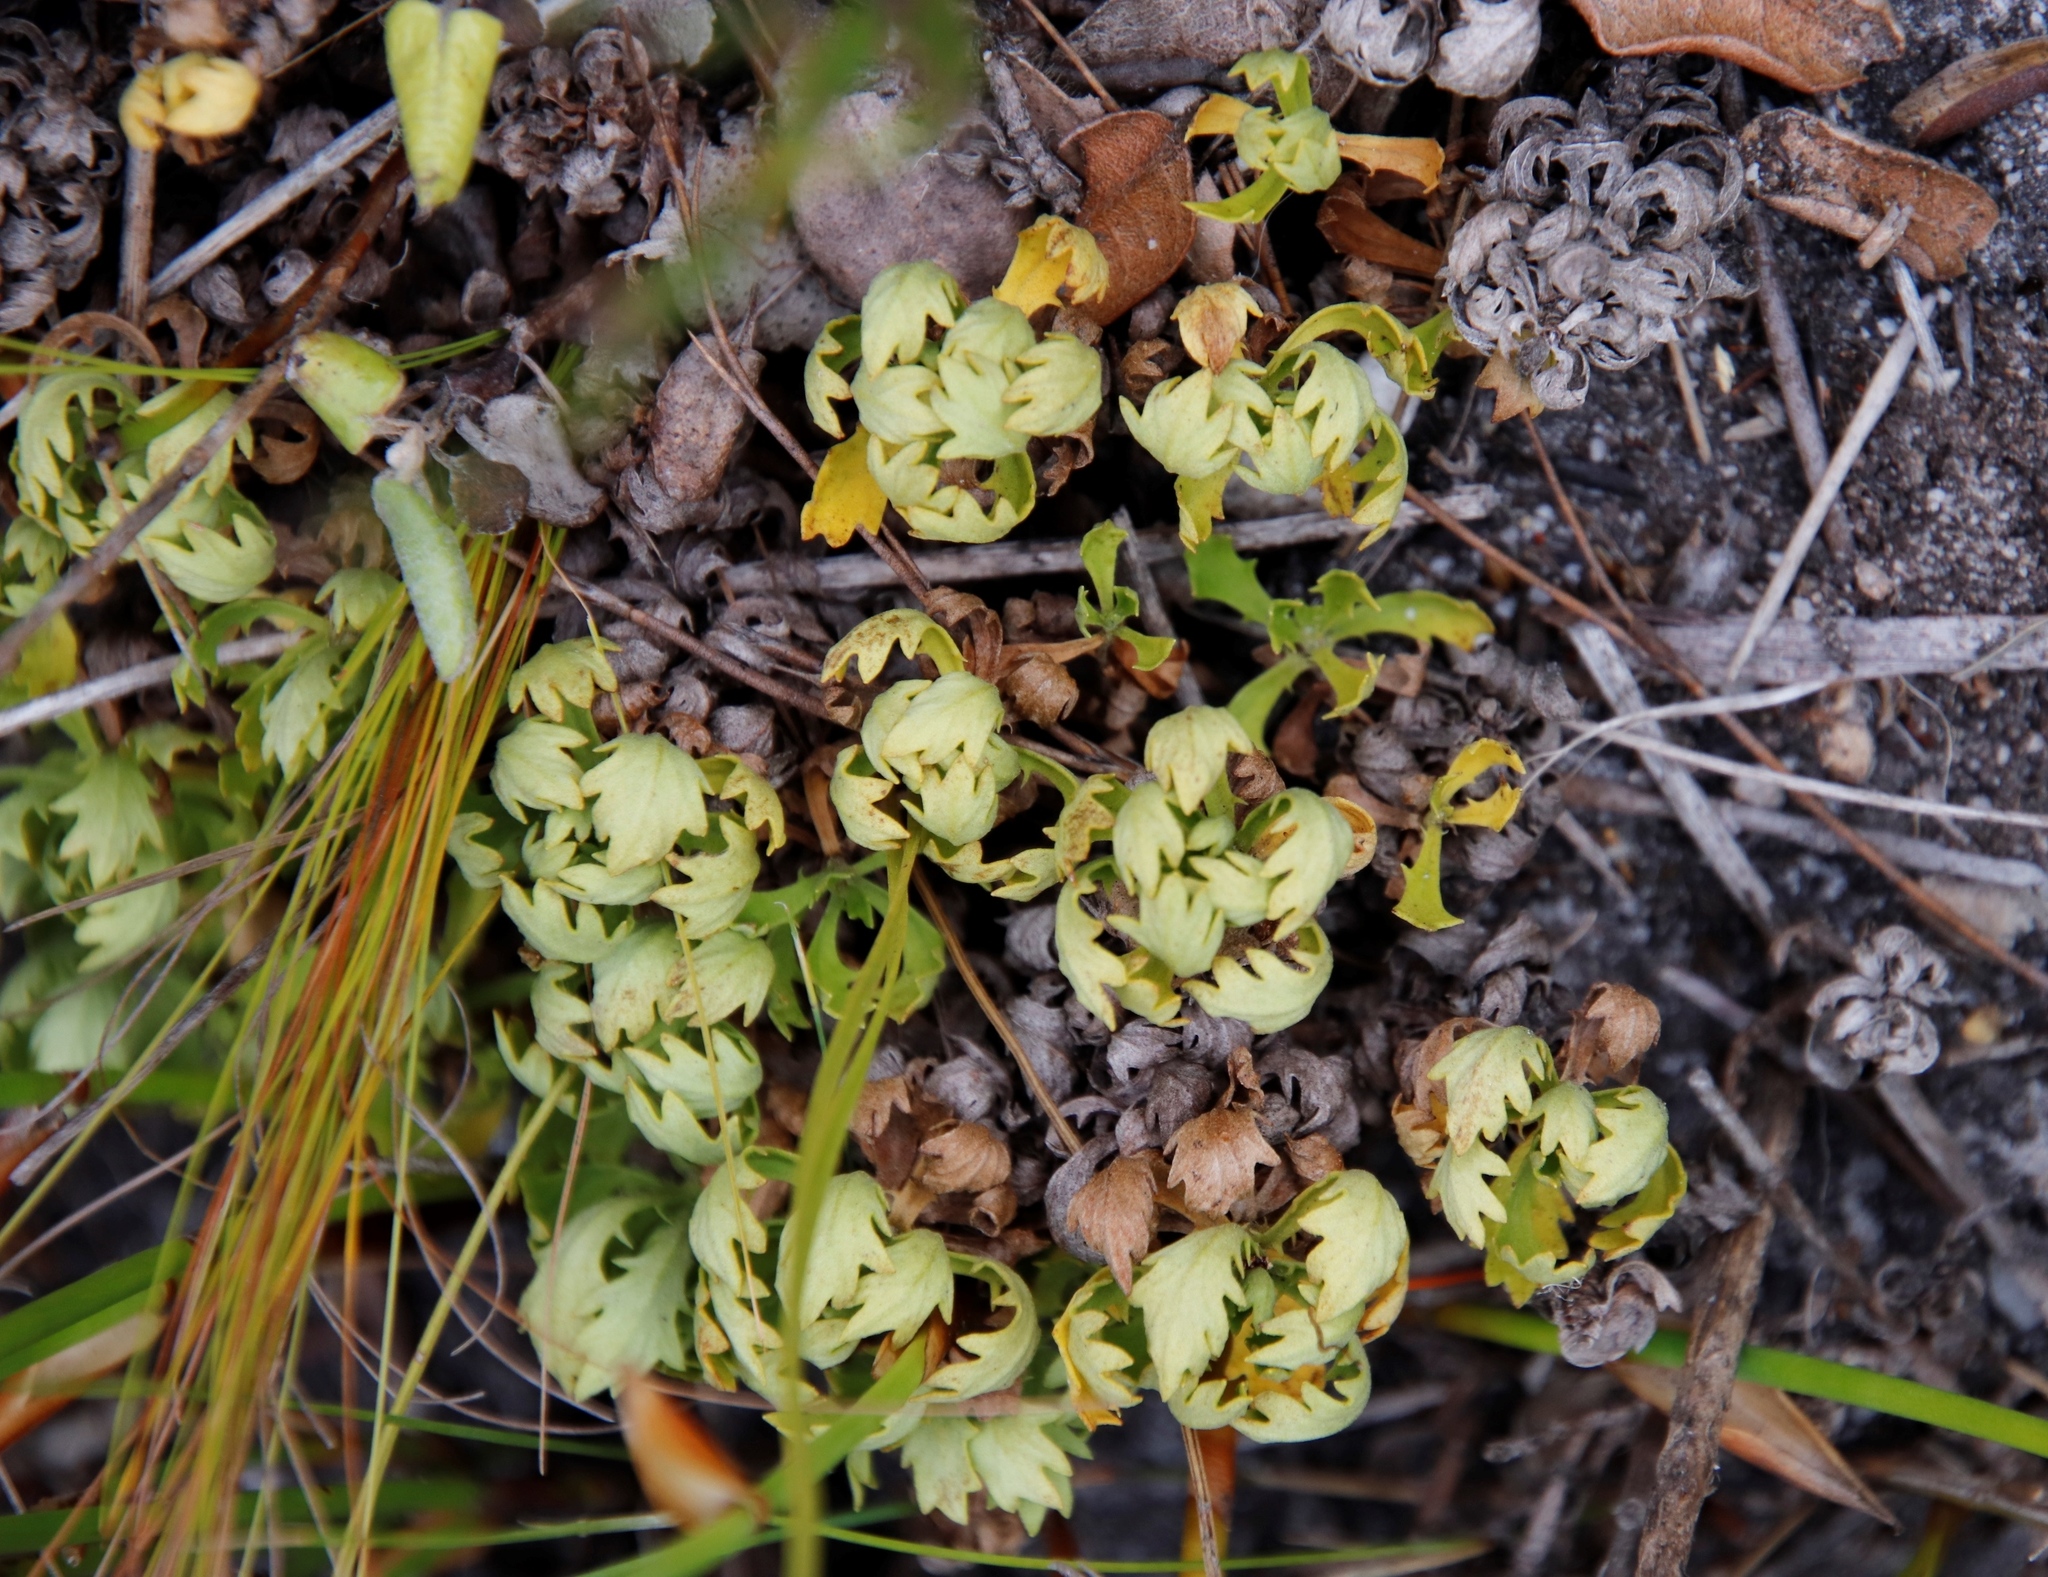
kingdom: Plantae
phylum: Tracheophyta
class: Magnoliopsida
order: Asterales
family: Asteraceae
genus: Osmitopsis
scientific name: Osmitopsis dentata
